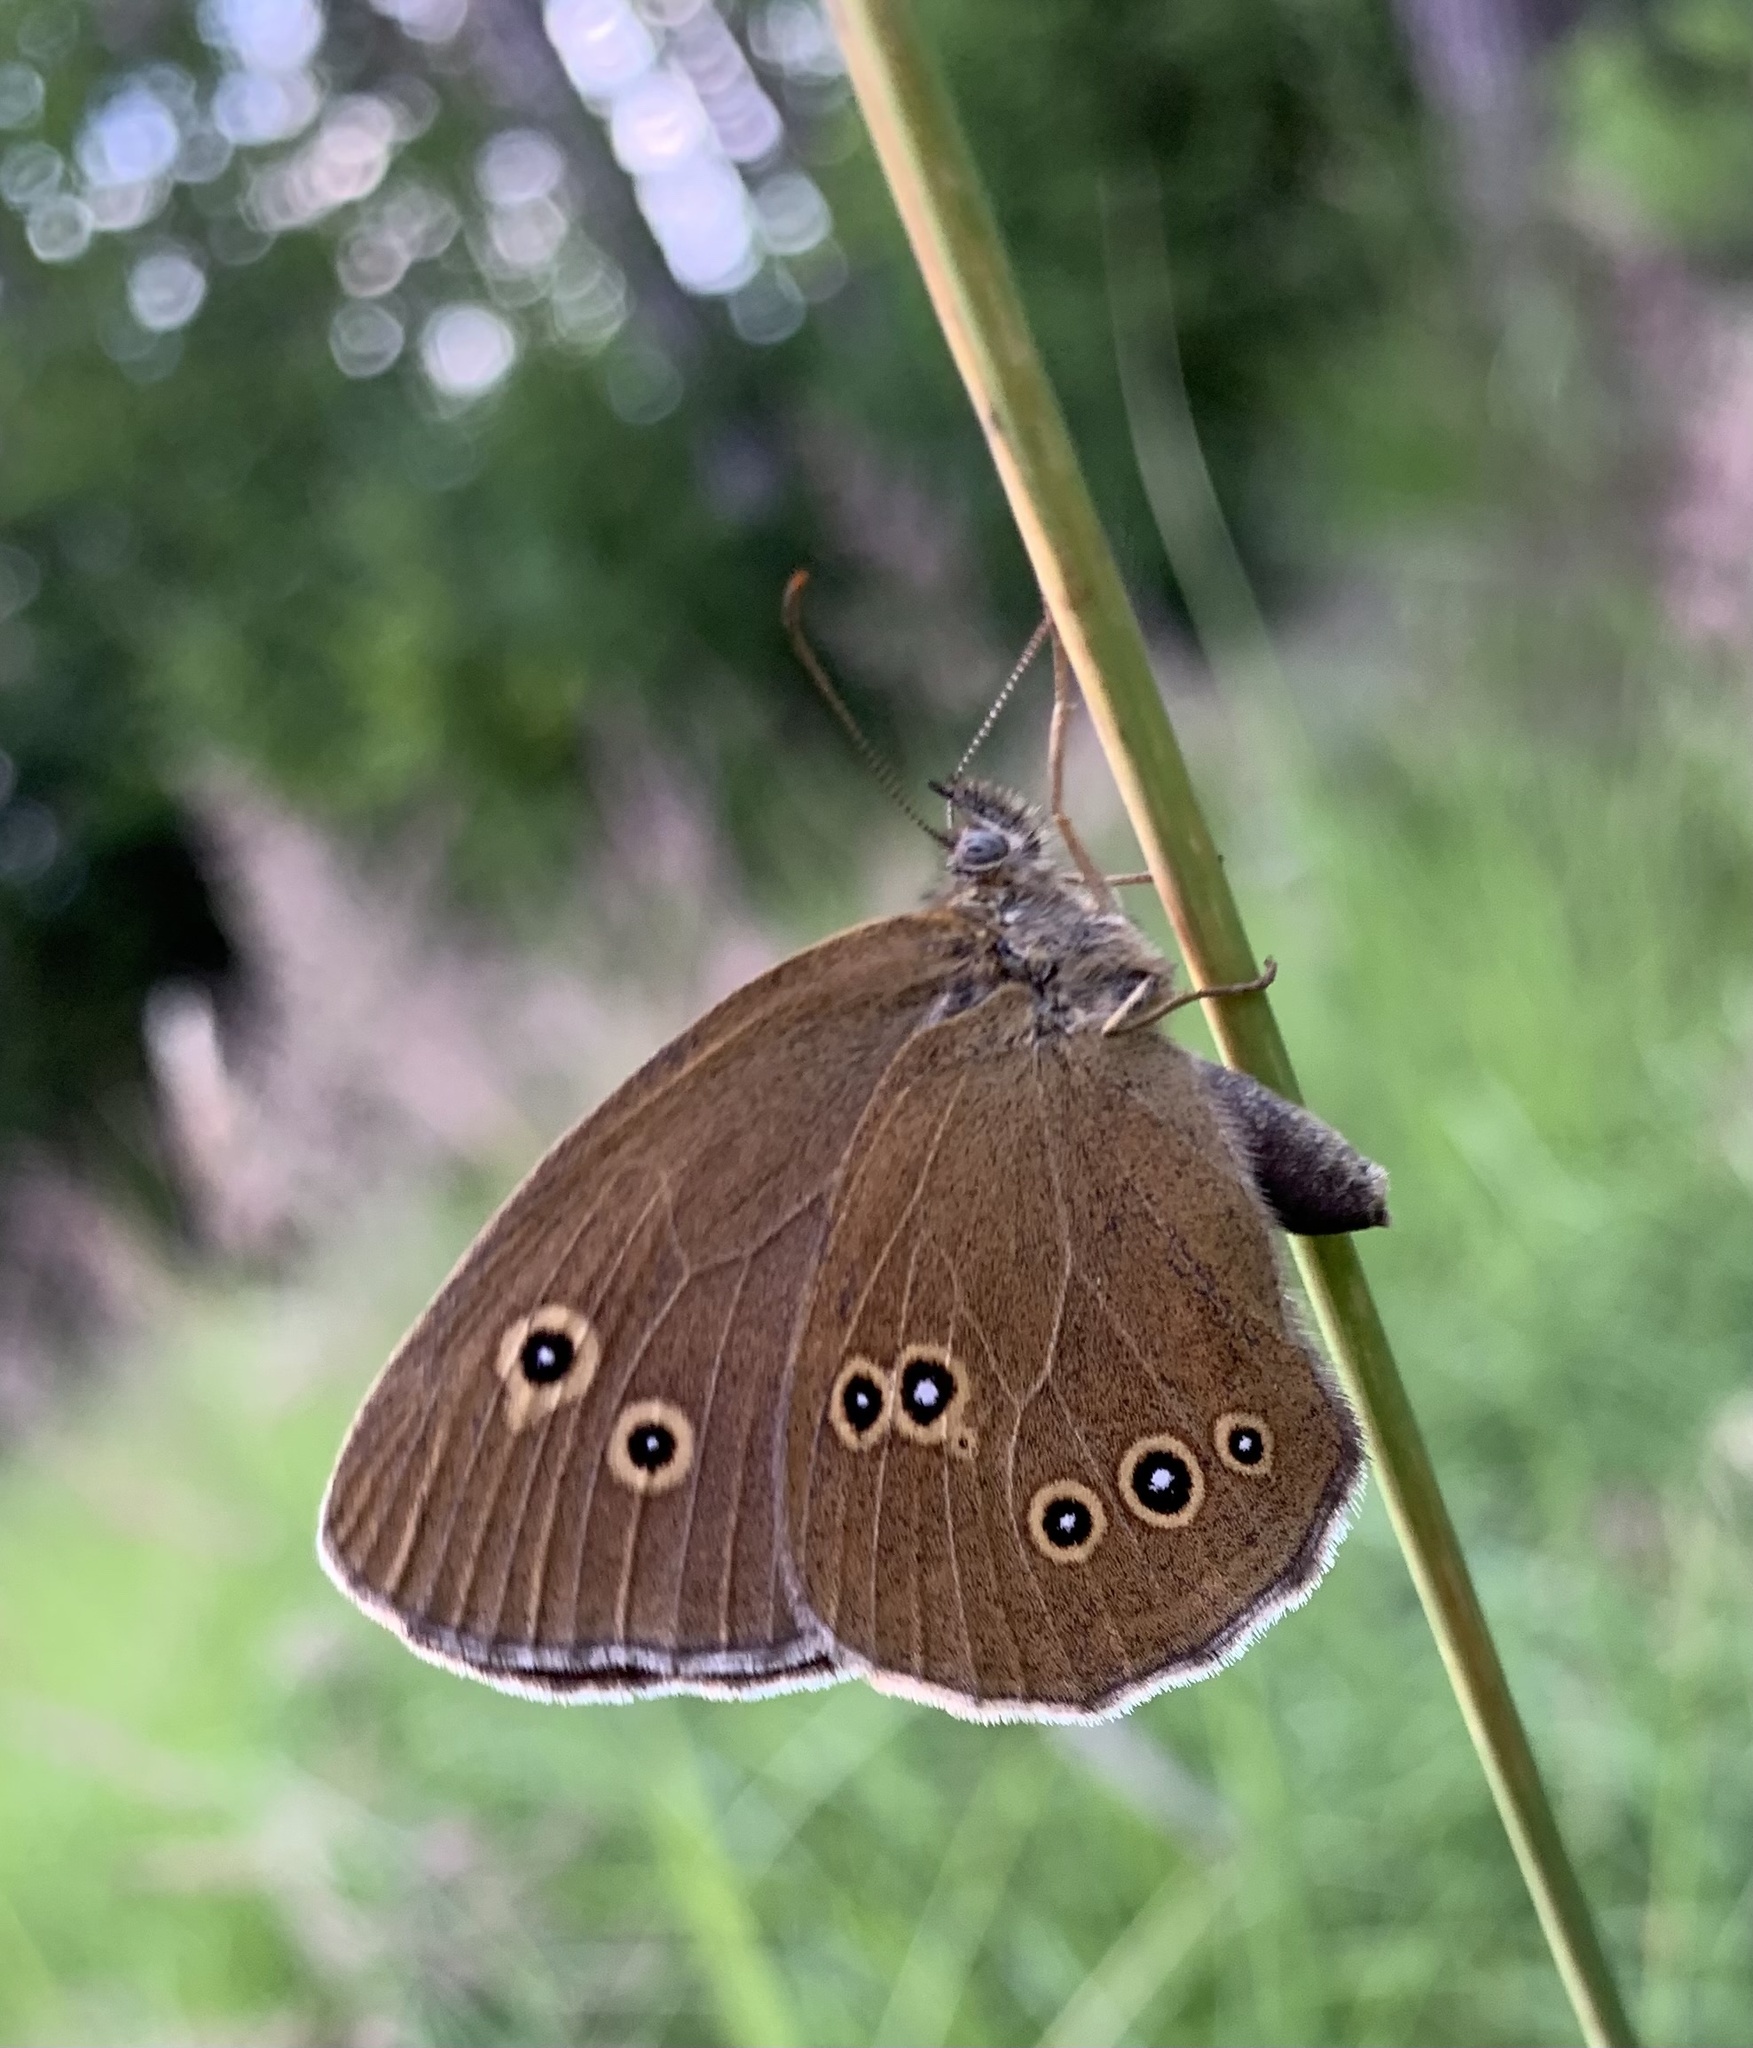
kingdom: Animalia
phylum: Arthropoda
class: Insecta
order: Lepidoptera
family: Nymphalidae
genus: Aphantopus
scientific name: Aphantopus hyperantus
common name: Ringlet
